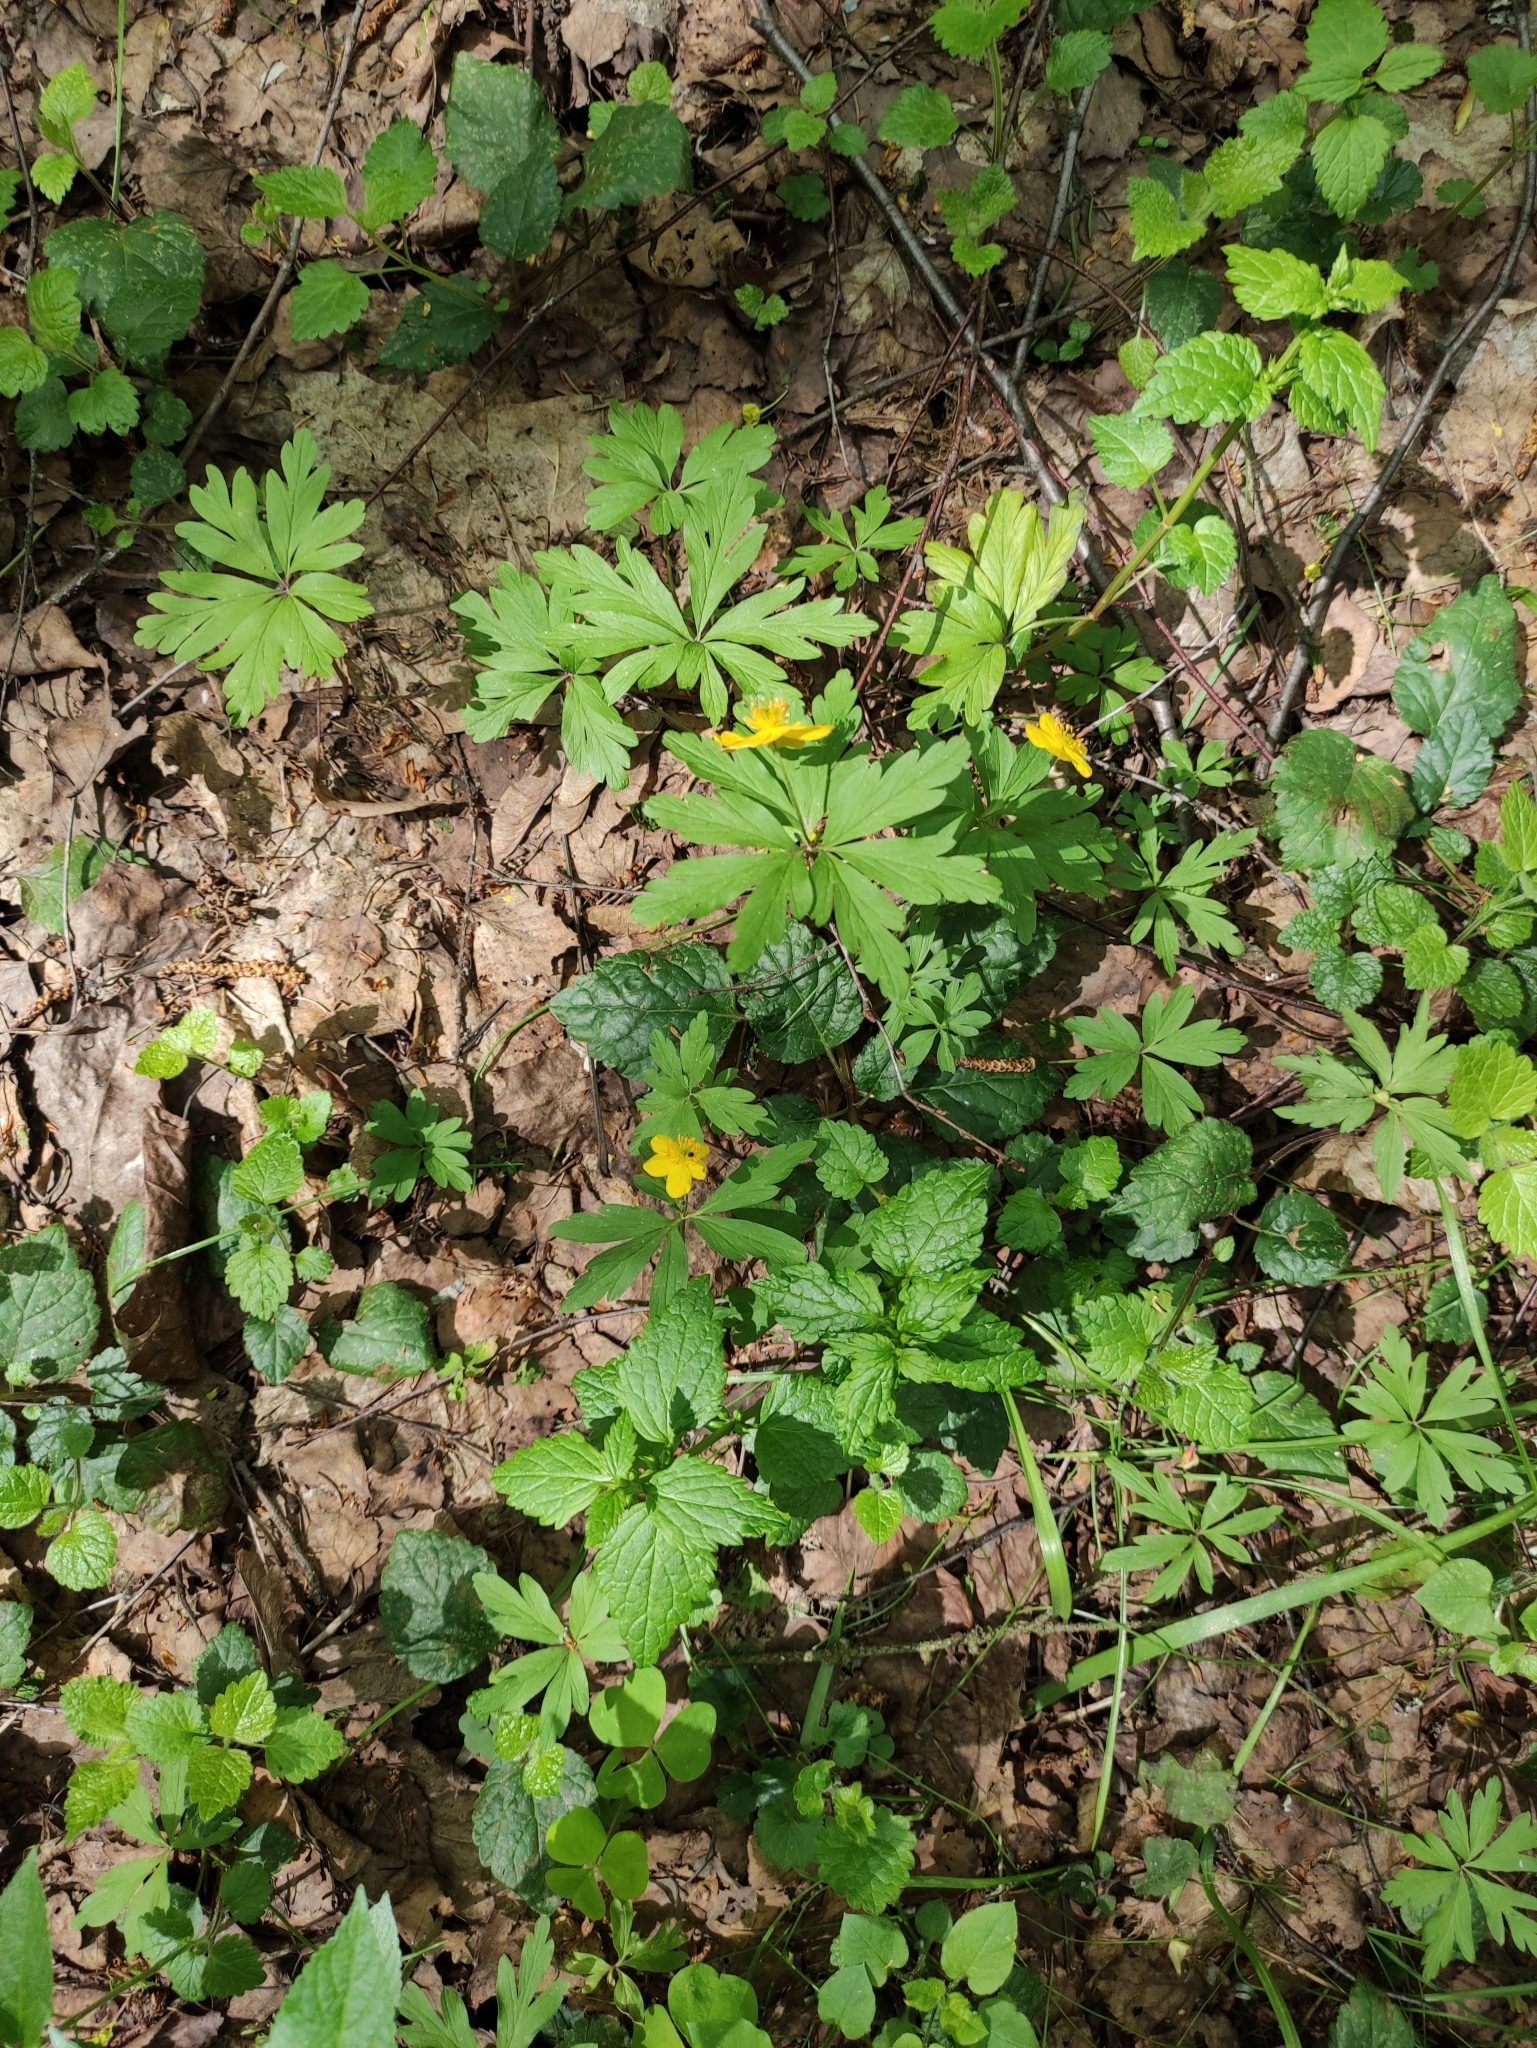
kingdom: Plantae
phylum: Tracheophyta
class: Magnoliopsida
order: Ranunculales
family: Ranunculaceae
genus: Anemone
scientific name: Anemone ranunculoides
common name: Yellow anemone
